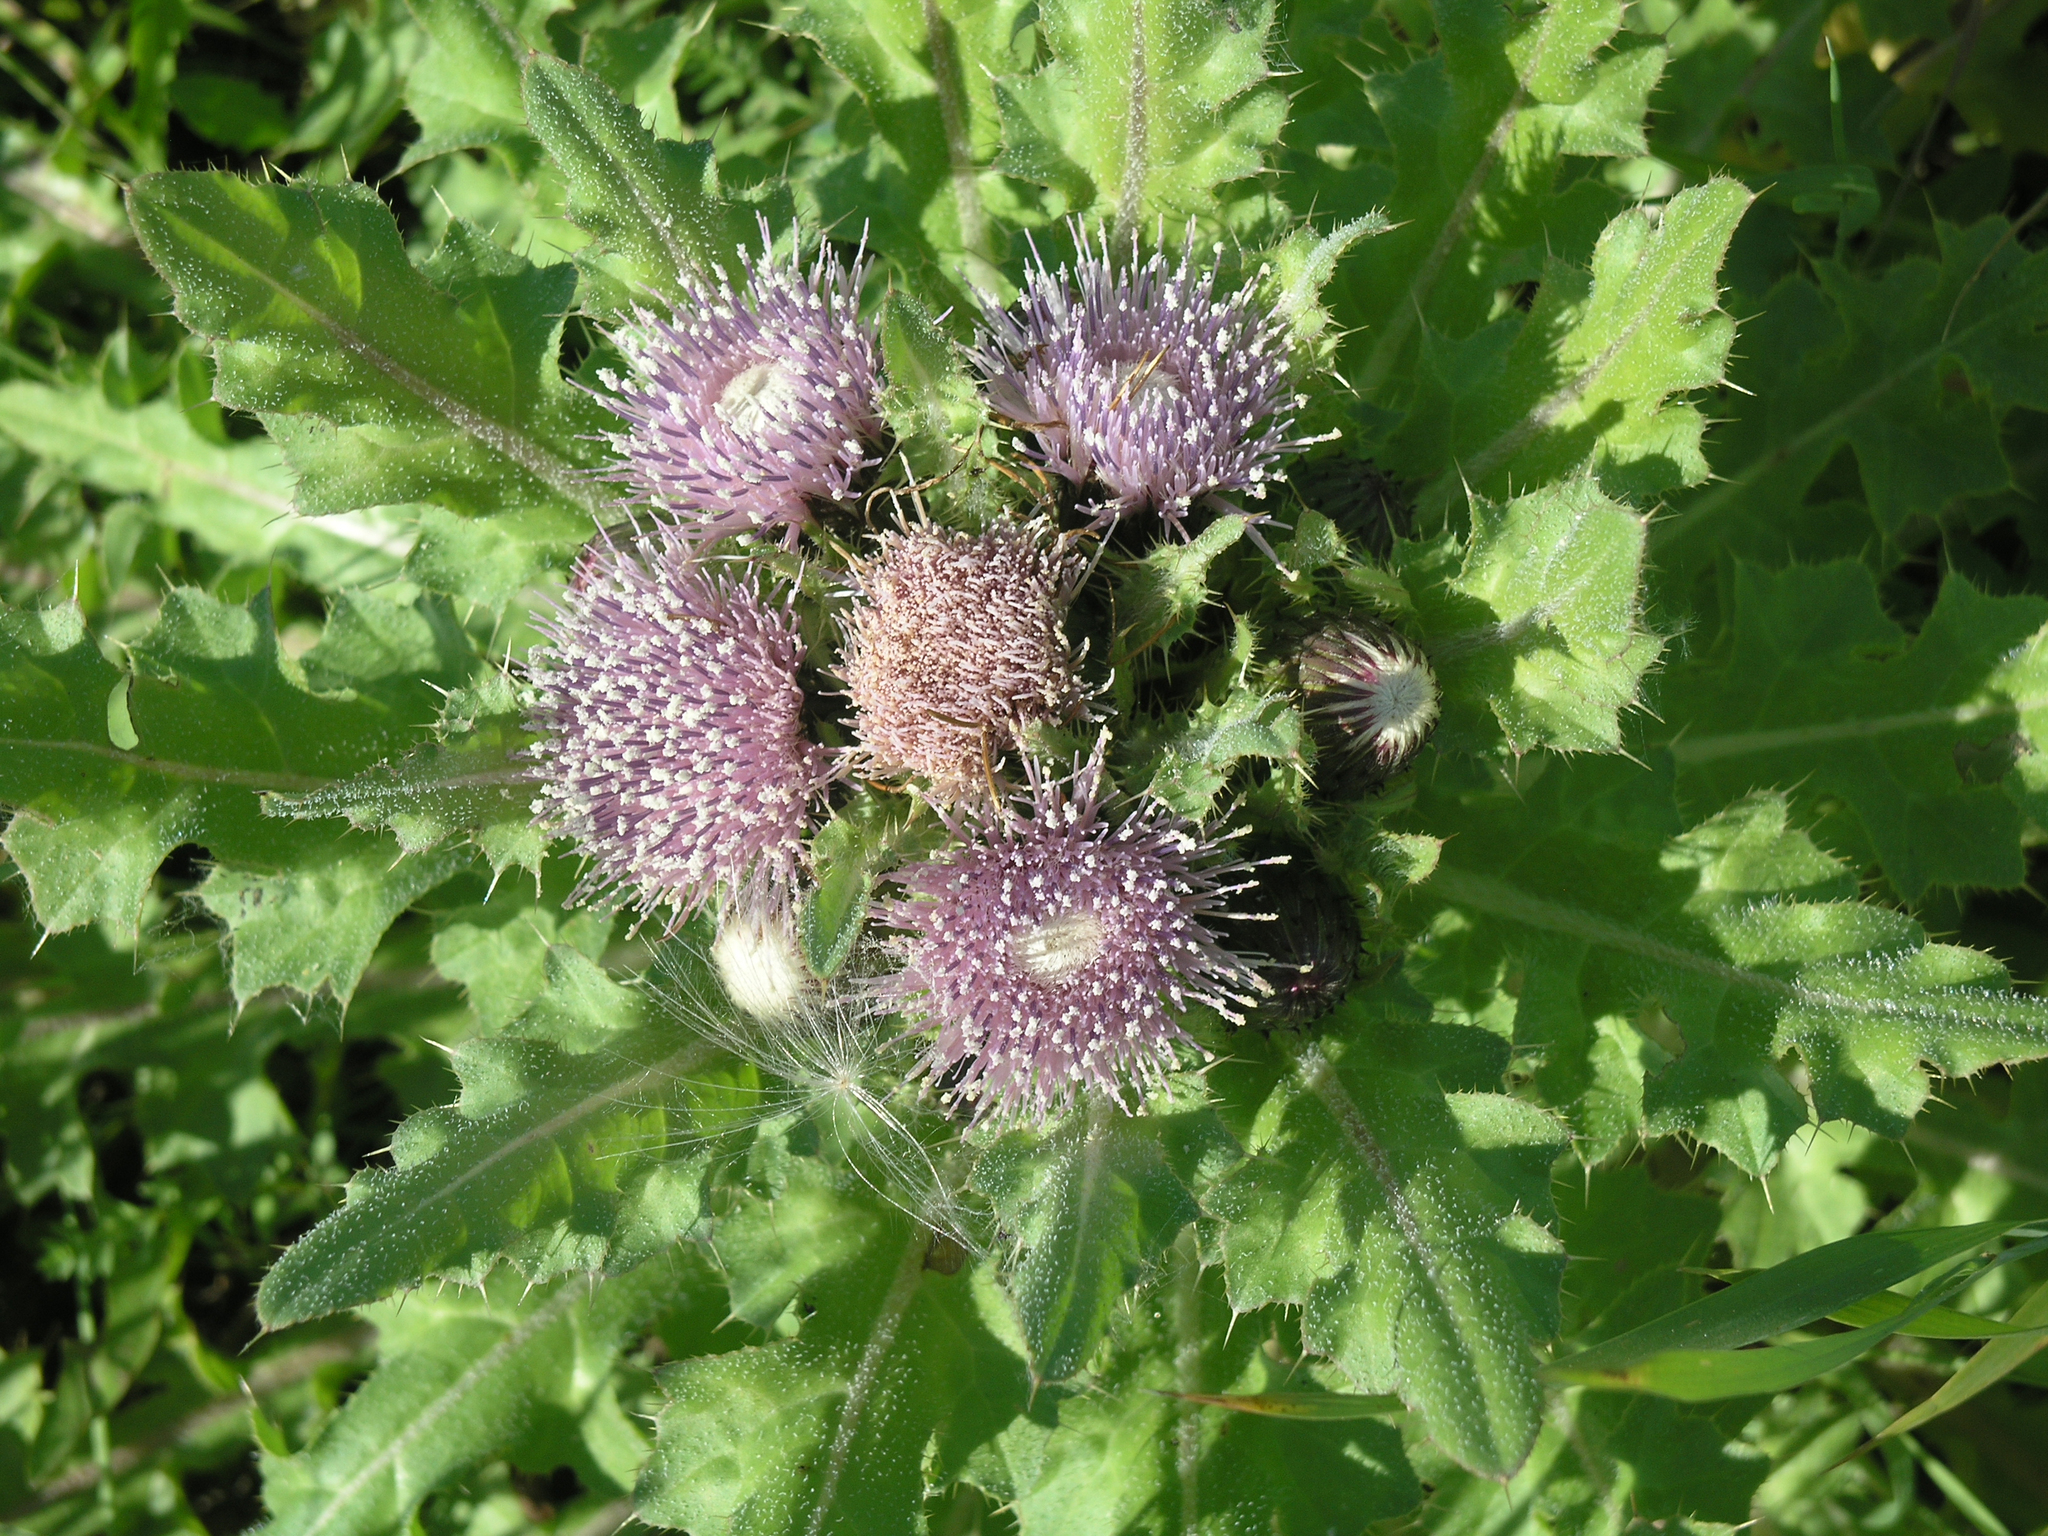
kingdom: Plantae
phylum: Tracheophyta
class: Magnoliopsida
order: Asterales
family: Asteraceae
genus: Cirsium
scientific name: Cirsium esculentum
